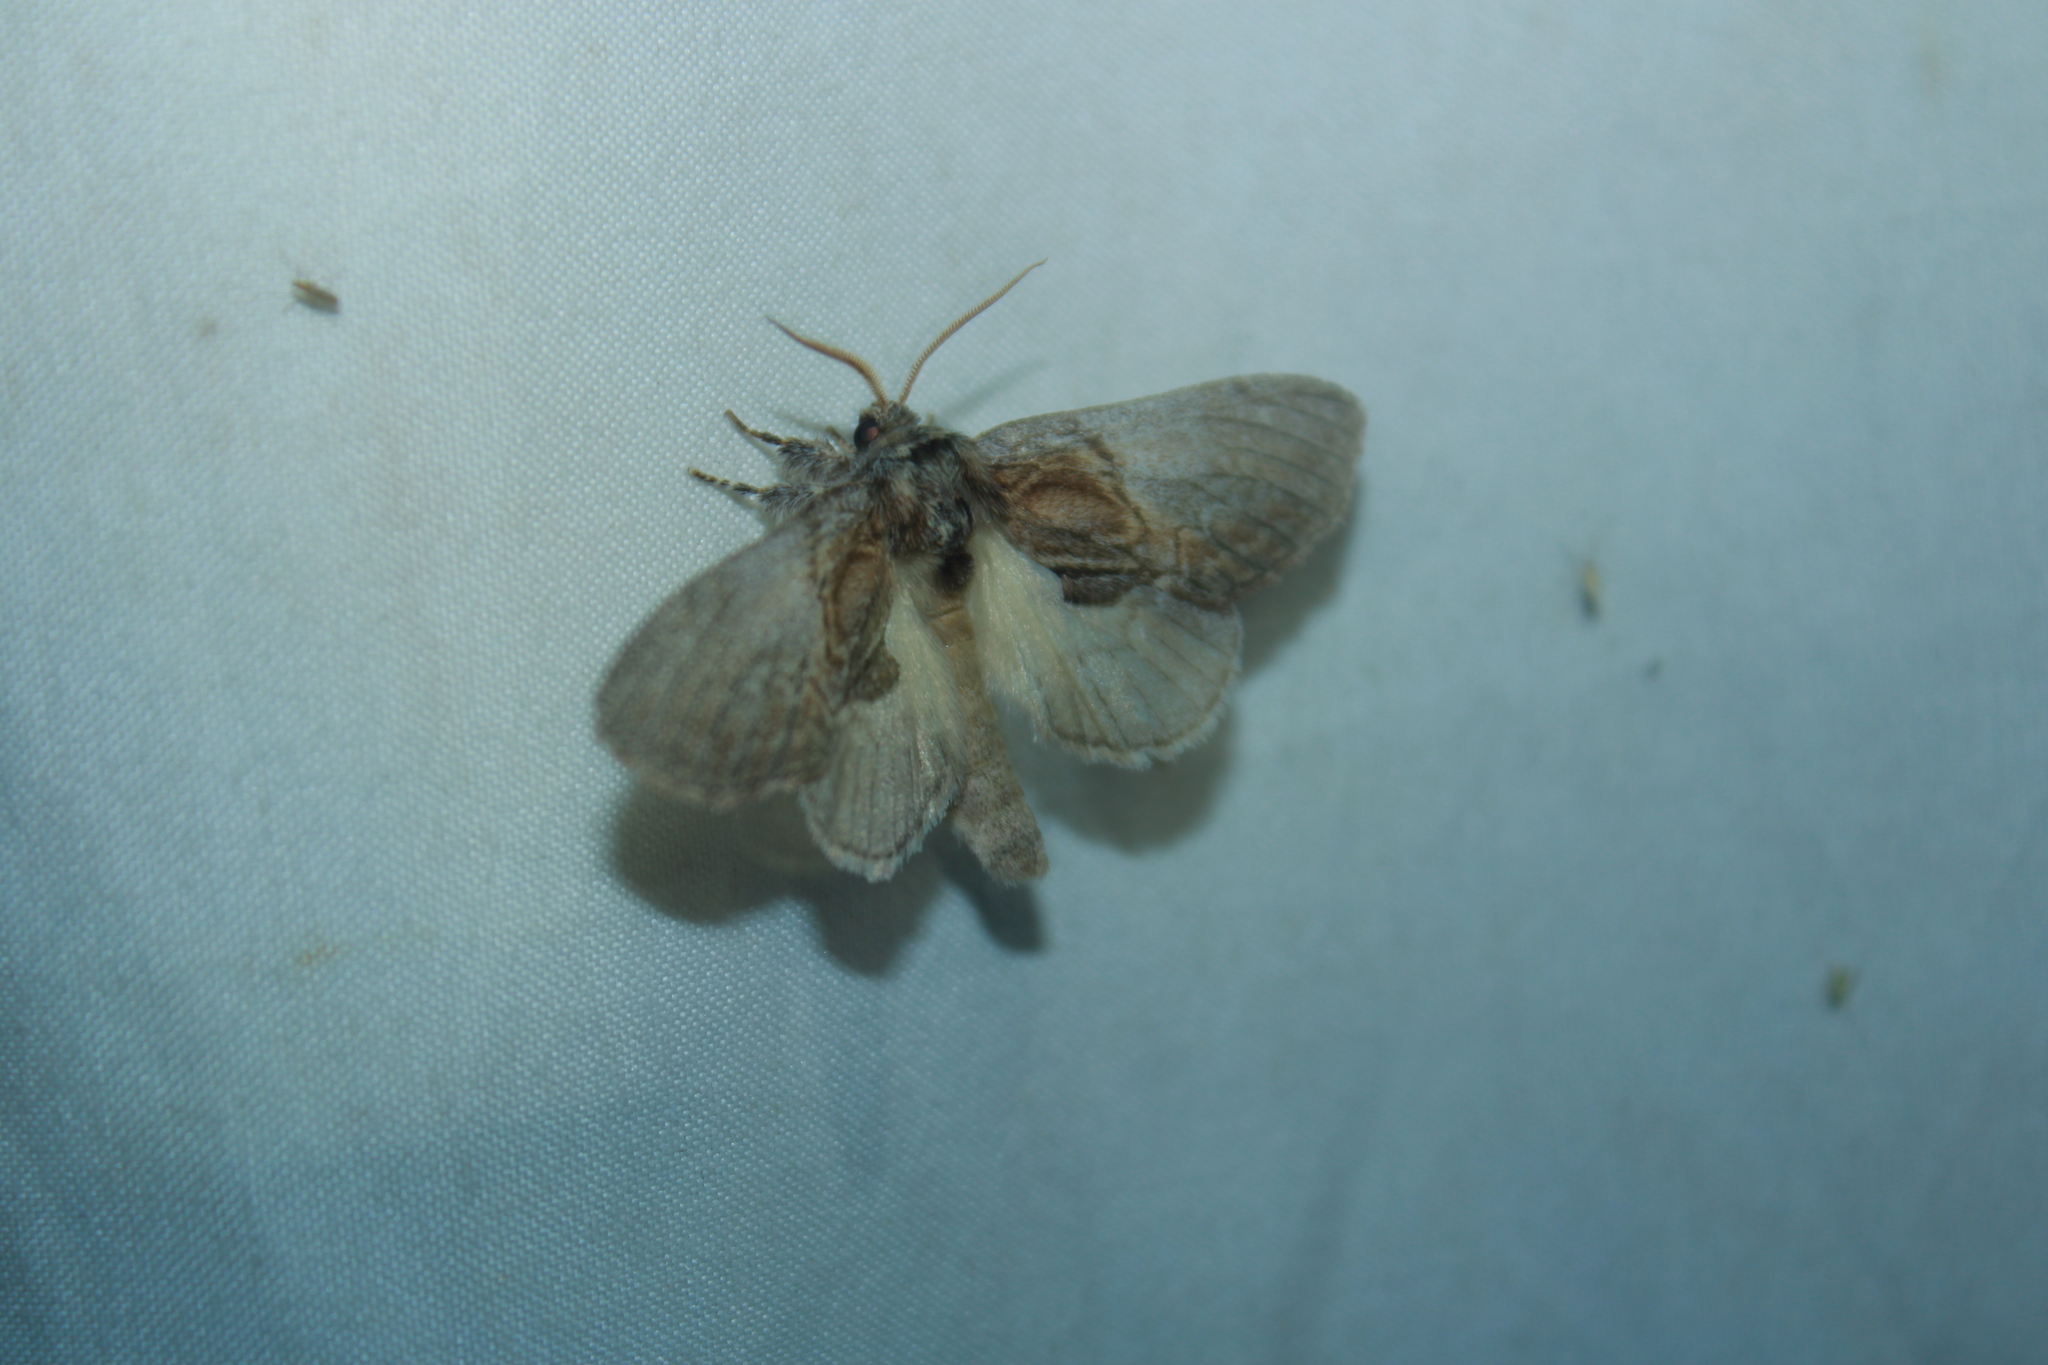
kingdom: Animalia
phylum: Arthropoda
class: Insecta
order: Lepidoptera
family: Notodontidae
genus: Peridea
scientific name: Peridea basitriens
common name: Oval-based prominent
